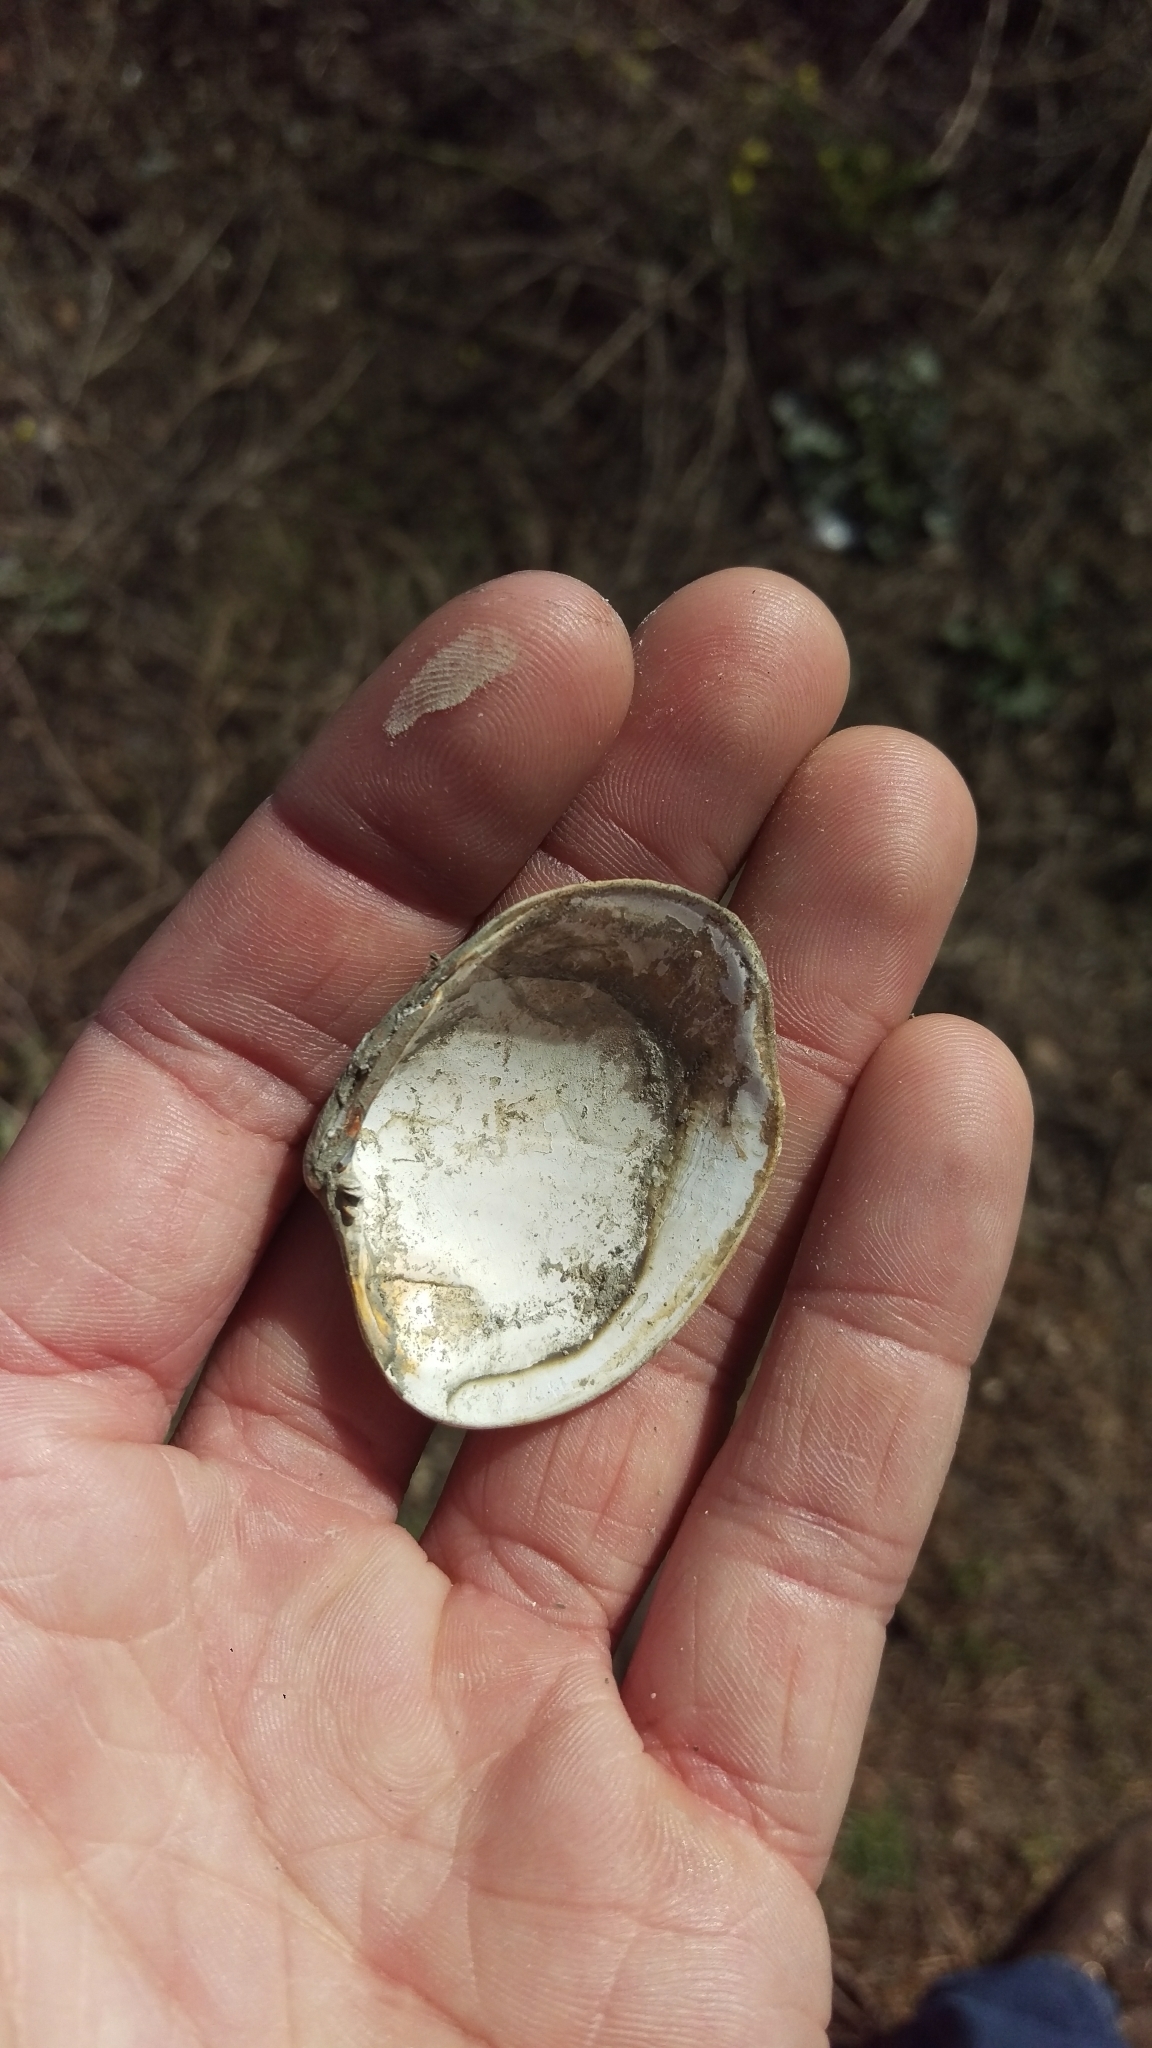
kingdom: Animalia
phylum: Mollusca
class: Bivalvia
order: Venerida
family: Veneridae
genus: Ruditapes
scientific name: Ruditapes philippinarum
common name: Manila clam
